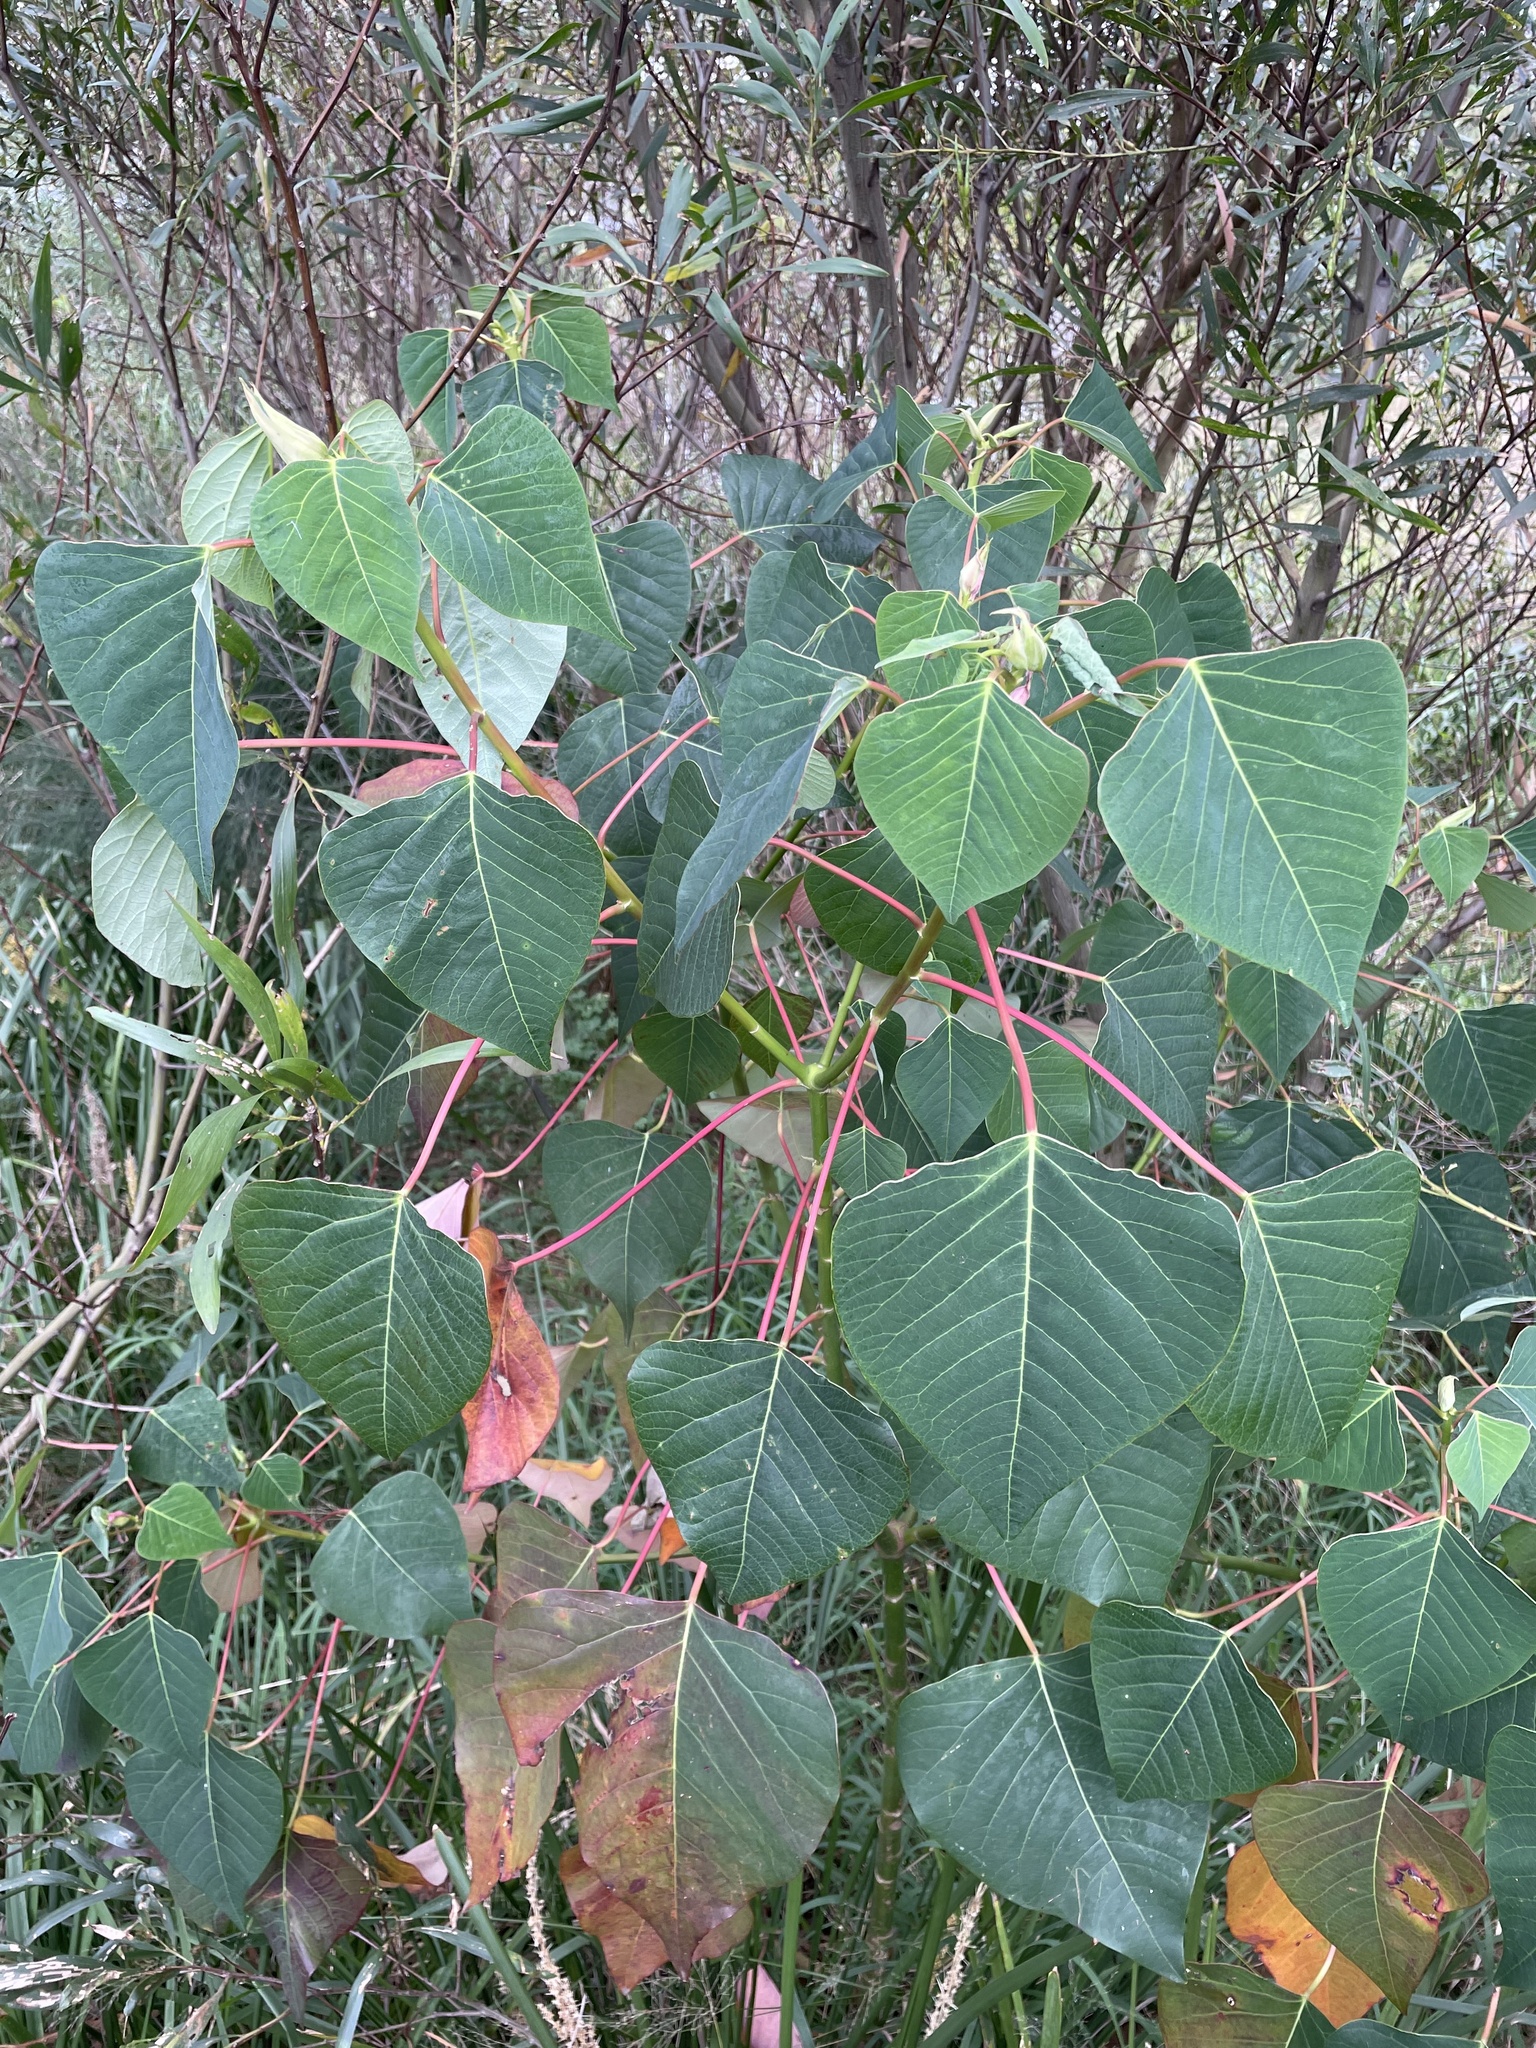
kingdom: Plantae
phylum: Tracheophyta
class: Magnoliopsida
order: Malpighiales
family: Euphorbiaceae
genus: Homalanthus
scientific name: Homalanthus populifolius
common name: Queensland poplar
